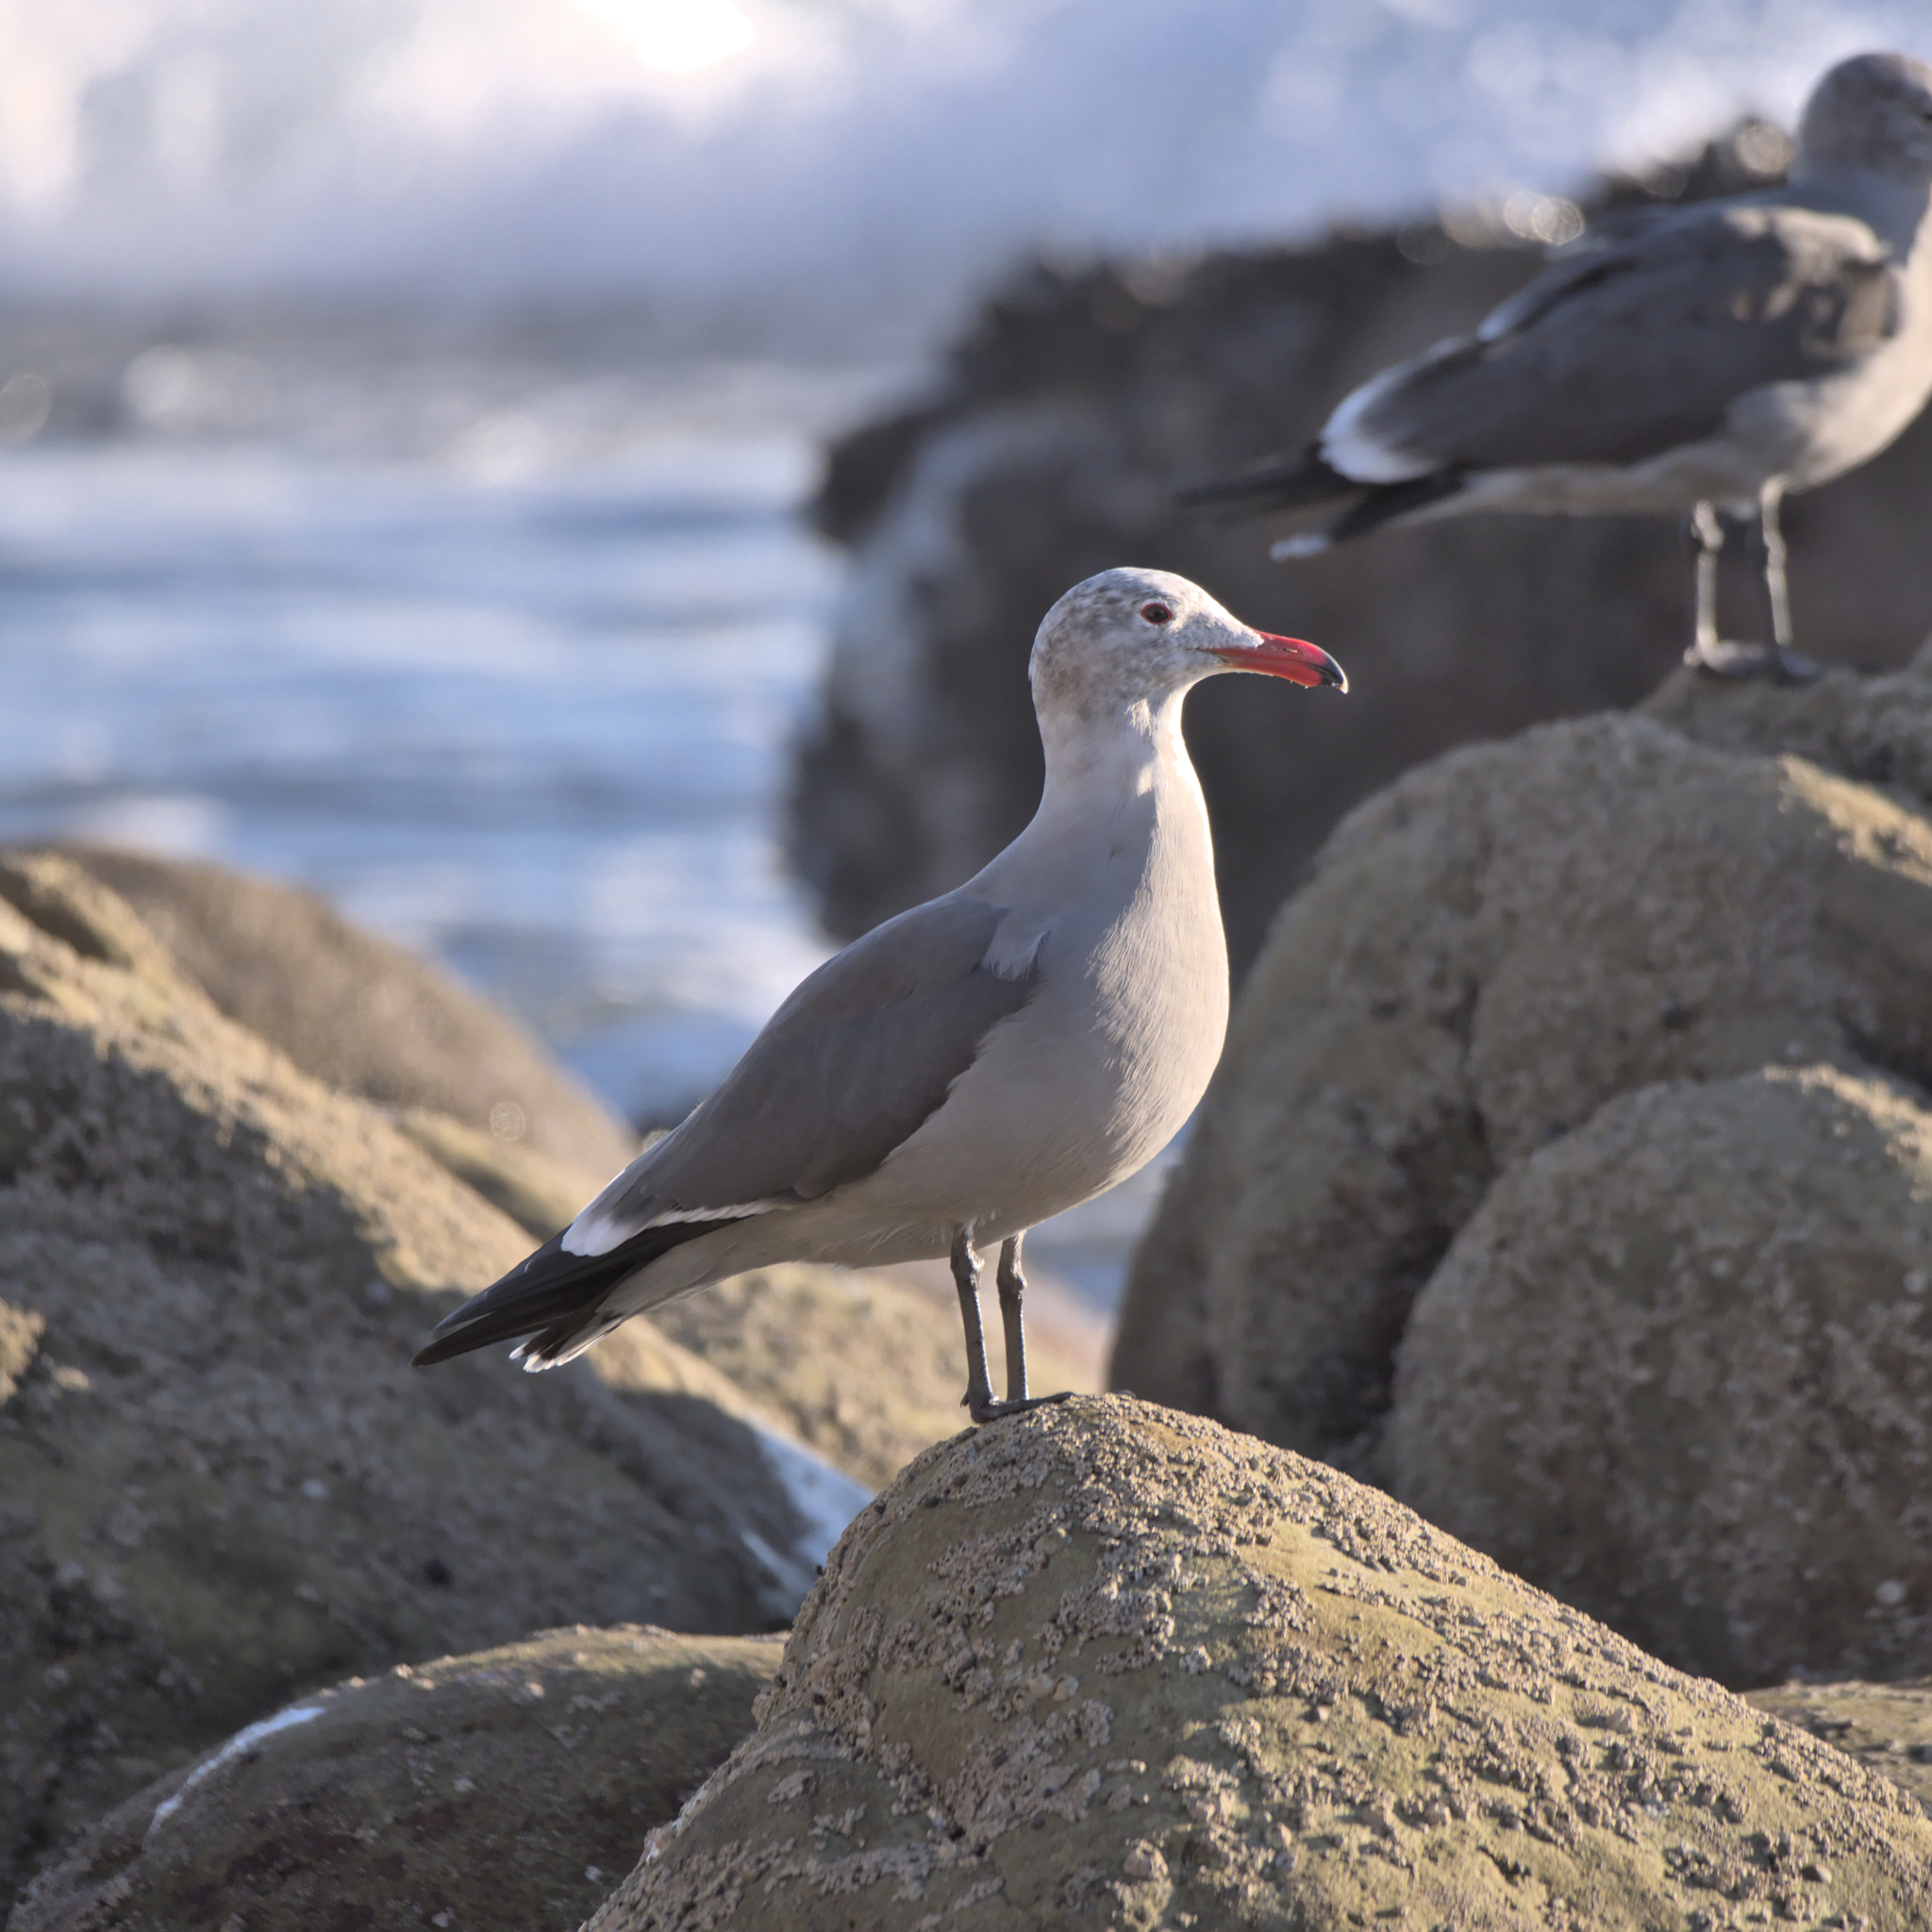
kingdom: Animalia
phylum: Chordata
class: Aves
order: Charadriiformes
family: Laridae
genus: Larus
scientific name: Larus heermanni
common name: Heermann's gull
